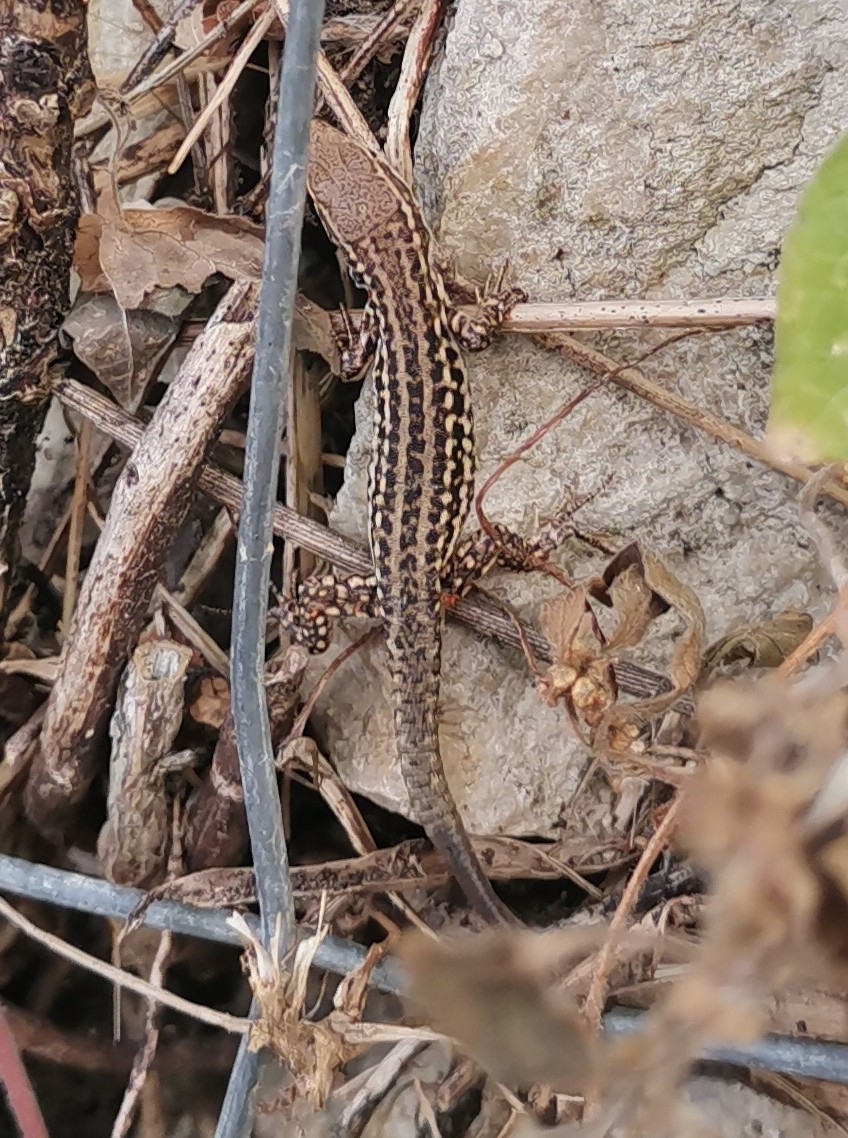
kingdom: Animalia
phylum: Chordata
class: Squamata
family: Lacertidae
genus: Podarcis
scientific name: Podarcis siculus
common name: Italian wall lizard
